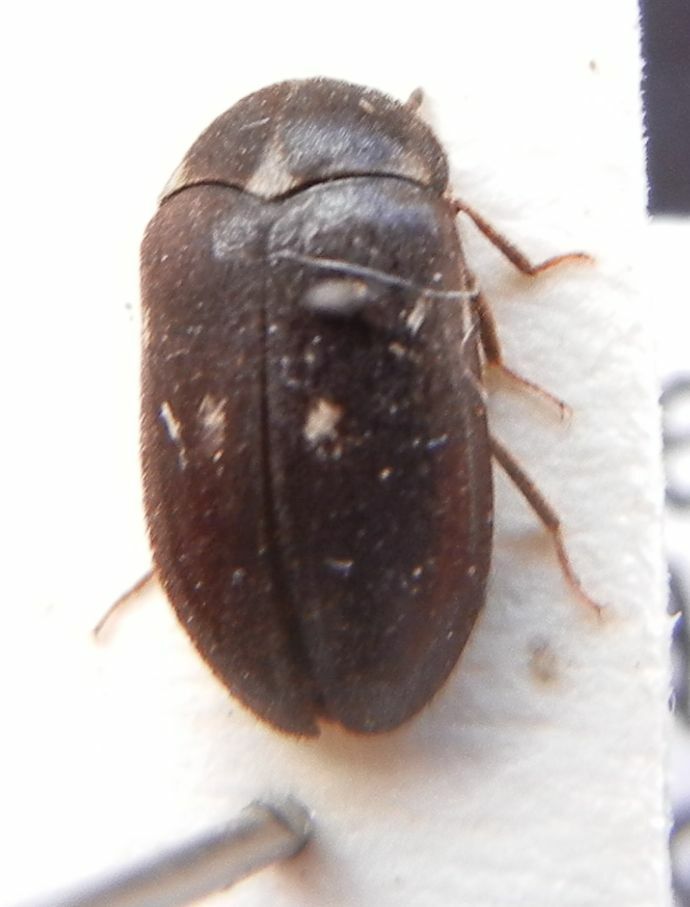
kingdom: Animalia
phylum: Arthropoda
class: Insecta
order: Coleoptera
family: Dermestidae
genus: Attagenus
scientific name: Attagenus pellio
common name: Two-spotted carpet beetle
